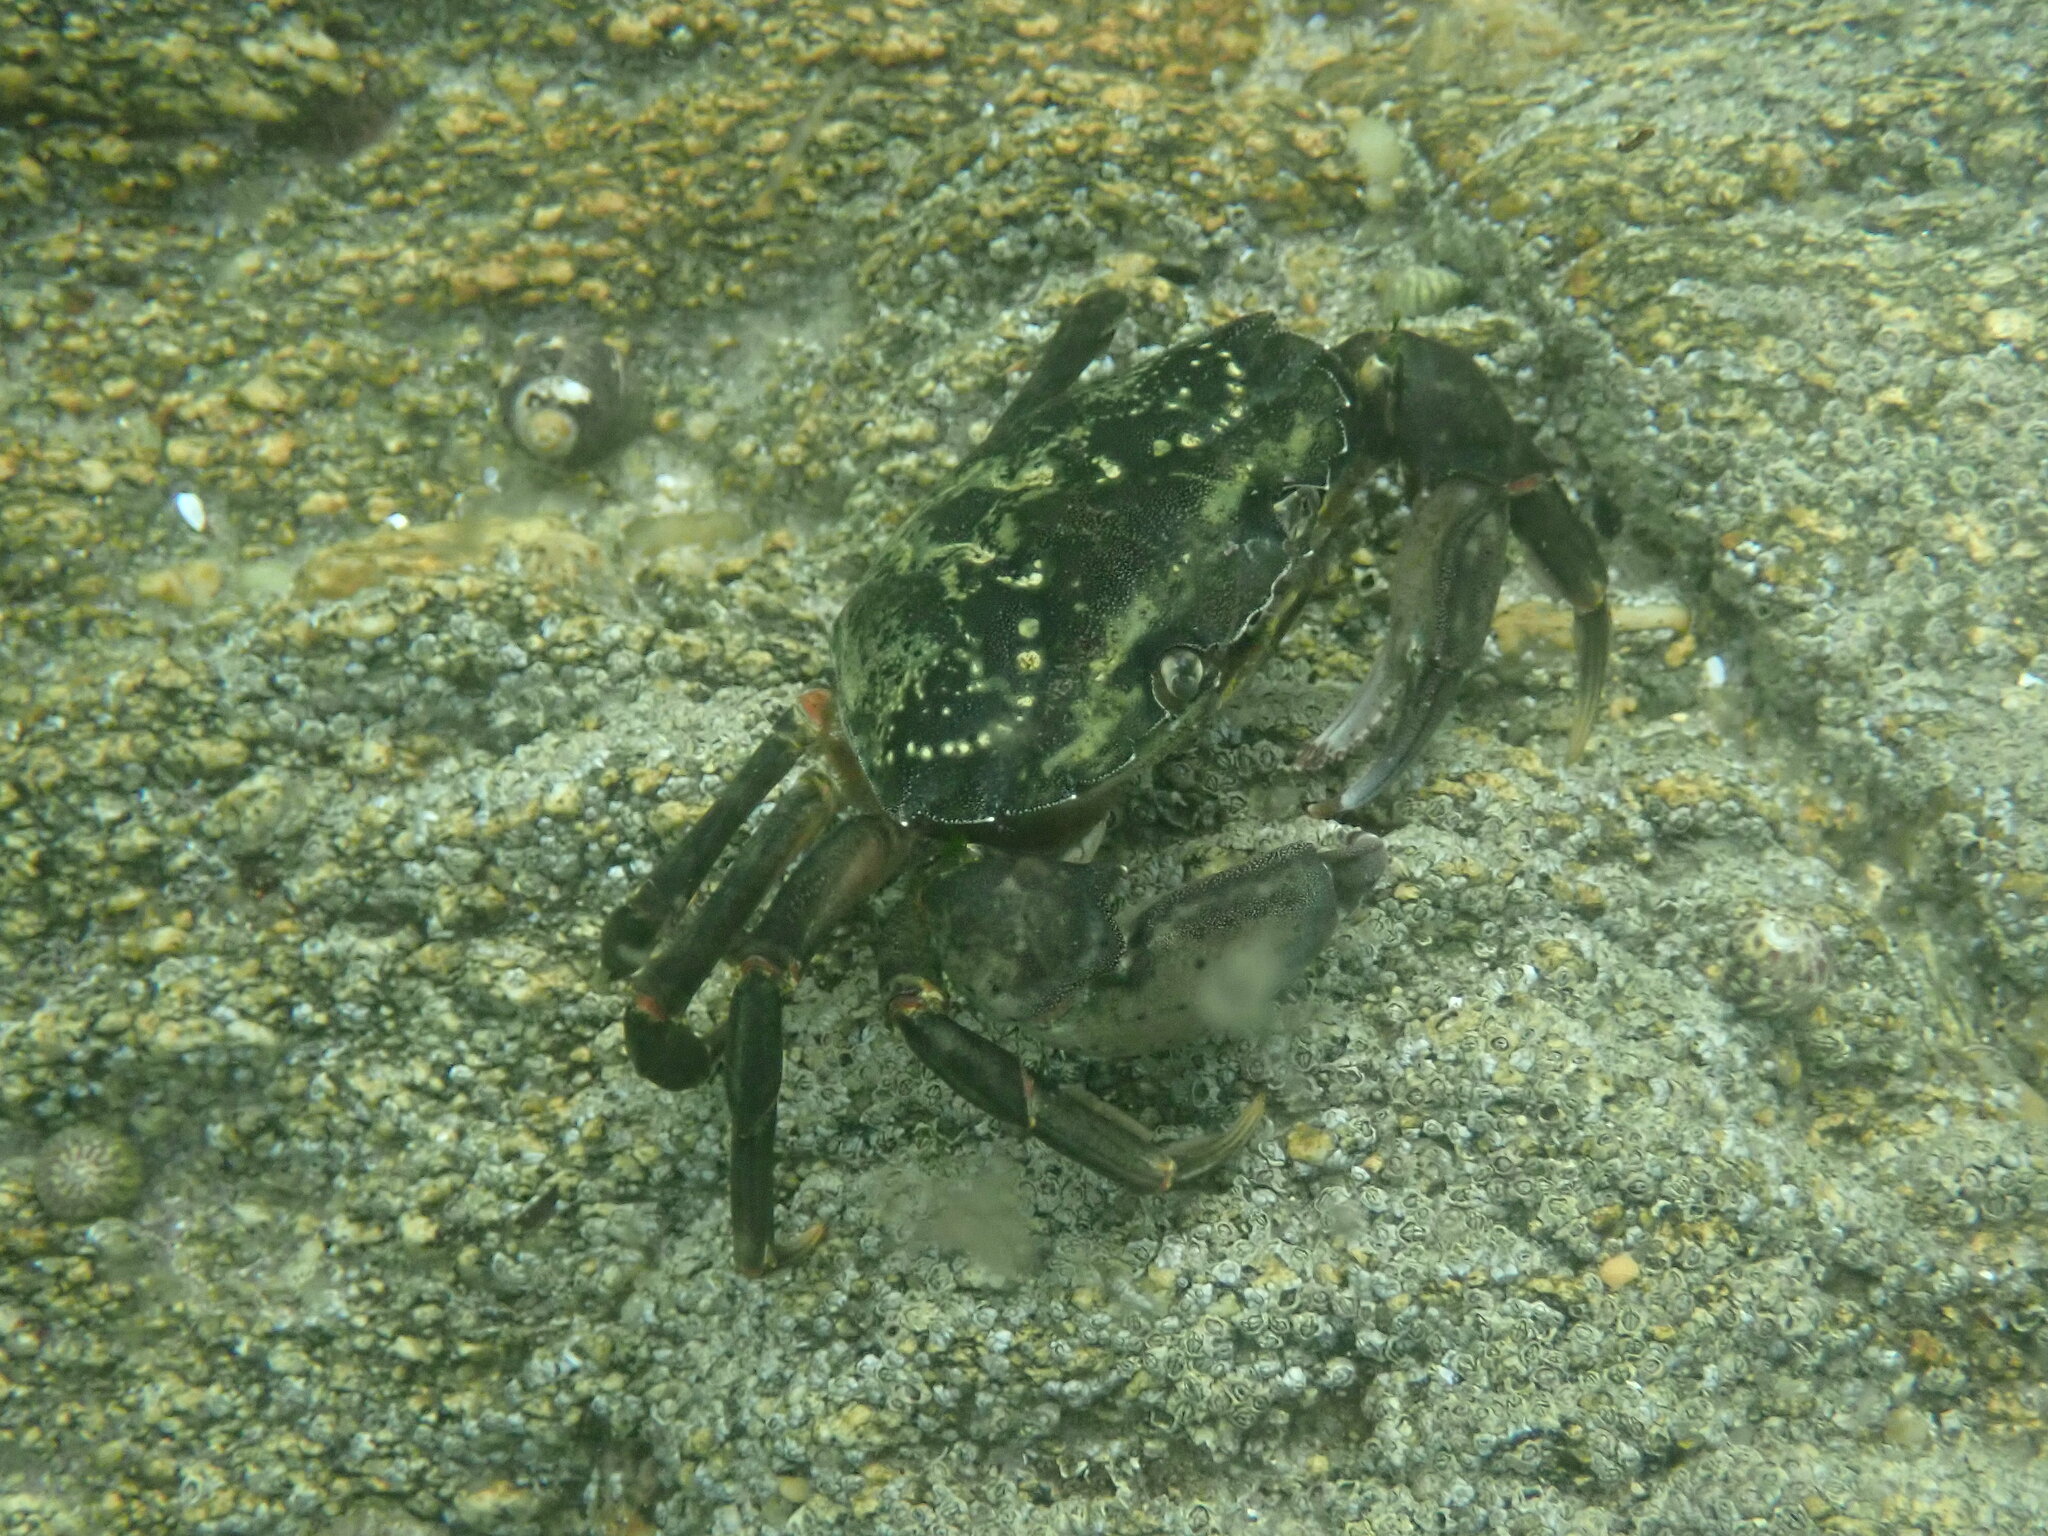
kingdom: Animalia
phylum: Arthropoda
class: Malacostraca
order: Decapoda
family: Carcinidae
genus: Carcinus
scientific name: Carcinus maenas
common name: European green crab
